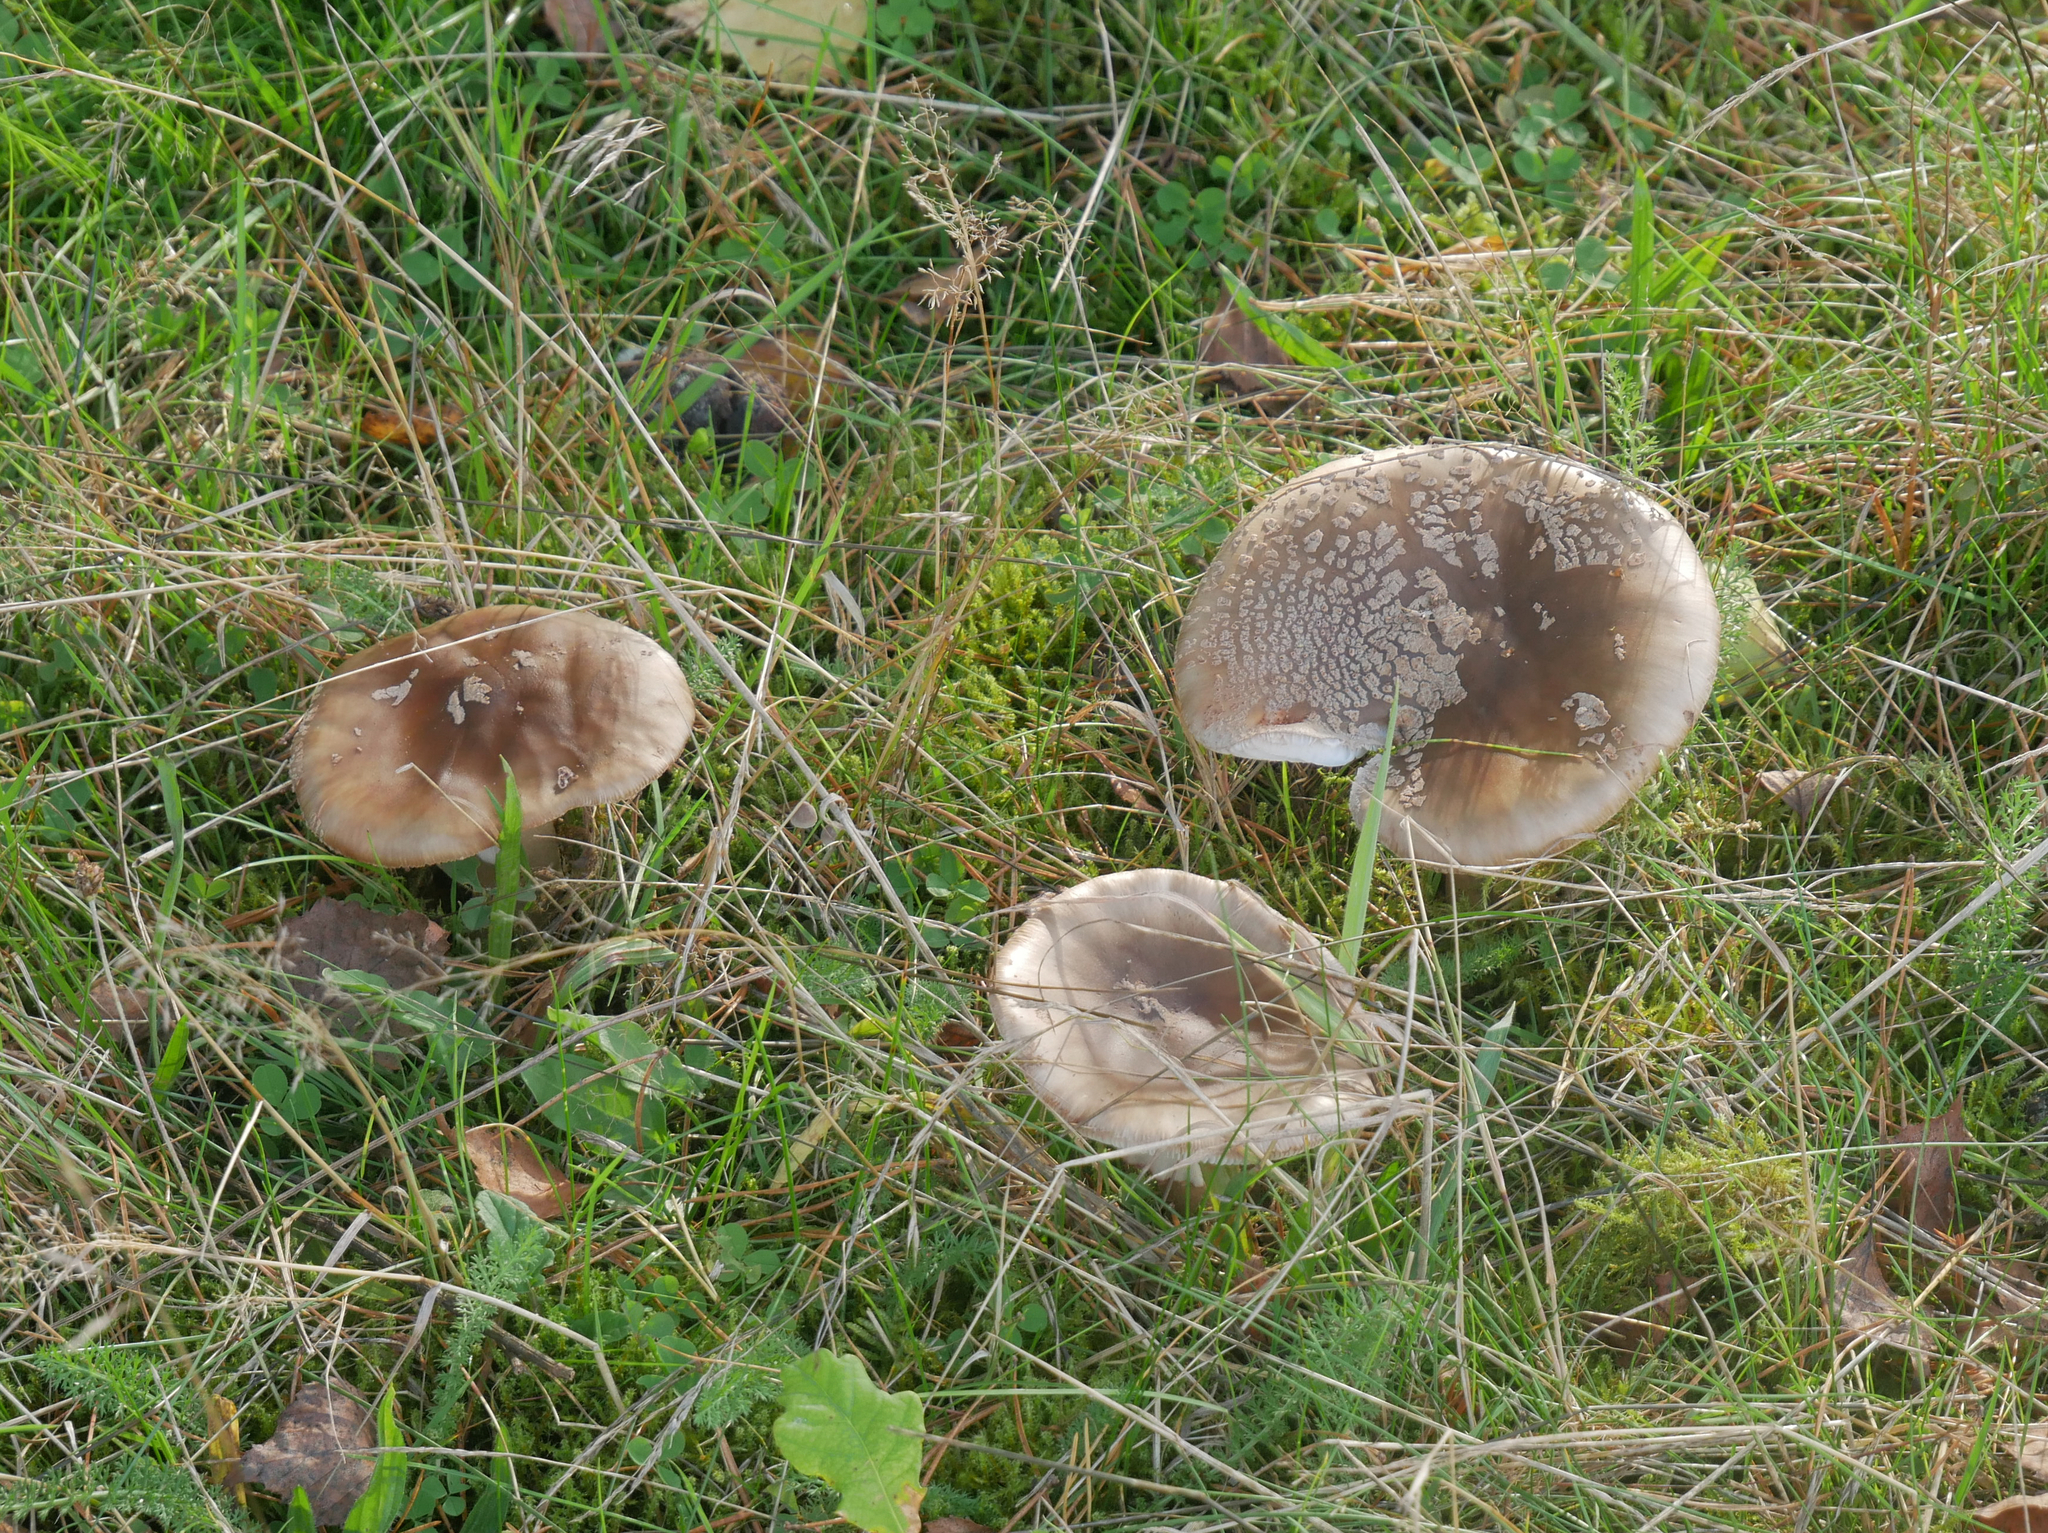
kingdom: Fungi
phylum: Basidiomycota
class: Agaricomycetes
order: Agaricales
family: Amanitaceae
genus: Amanita
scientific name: Amanita rubescens
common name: Blusher
